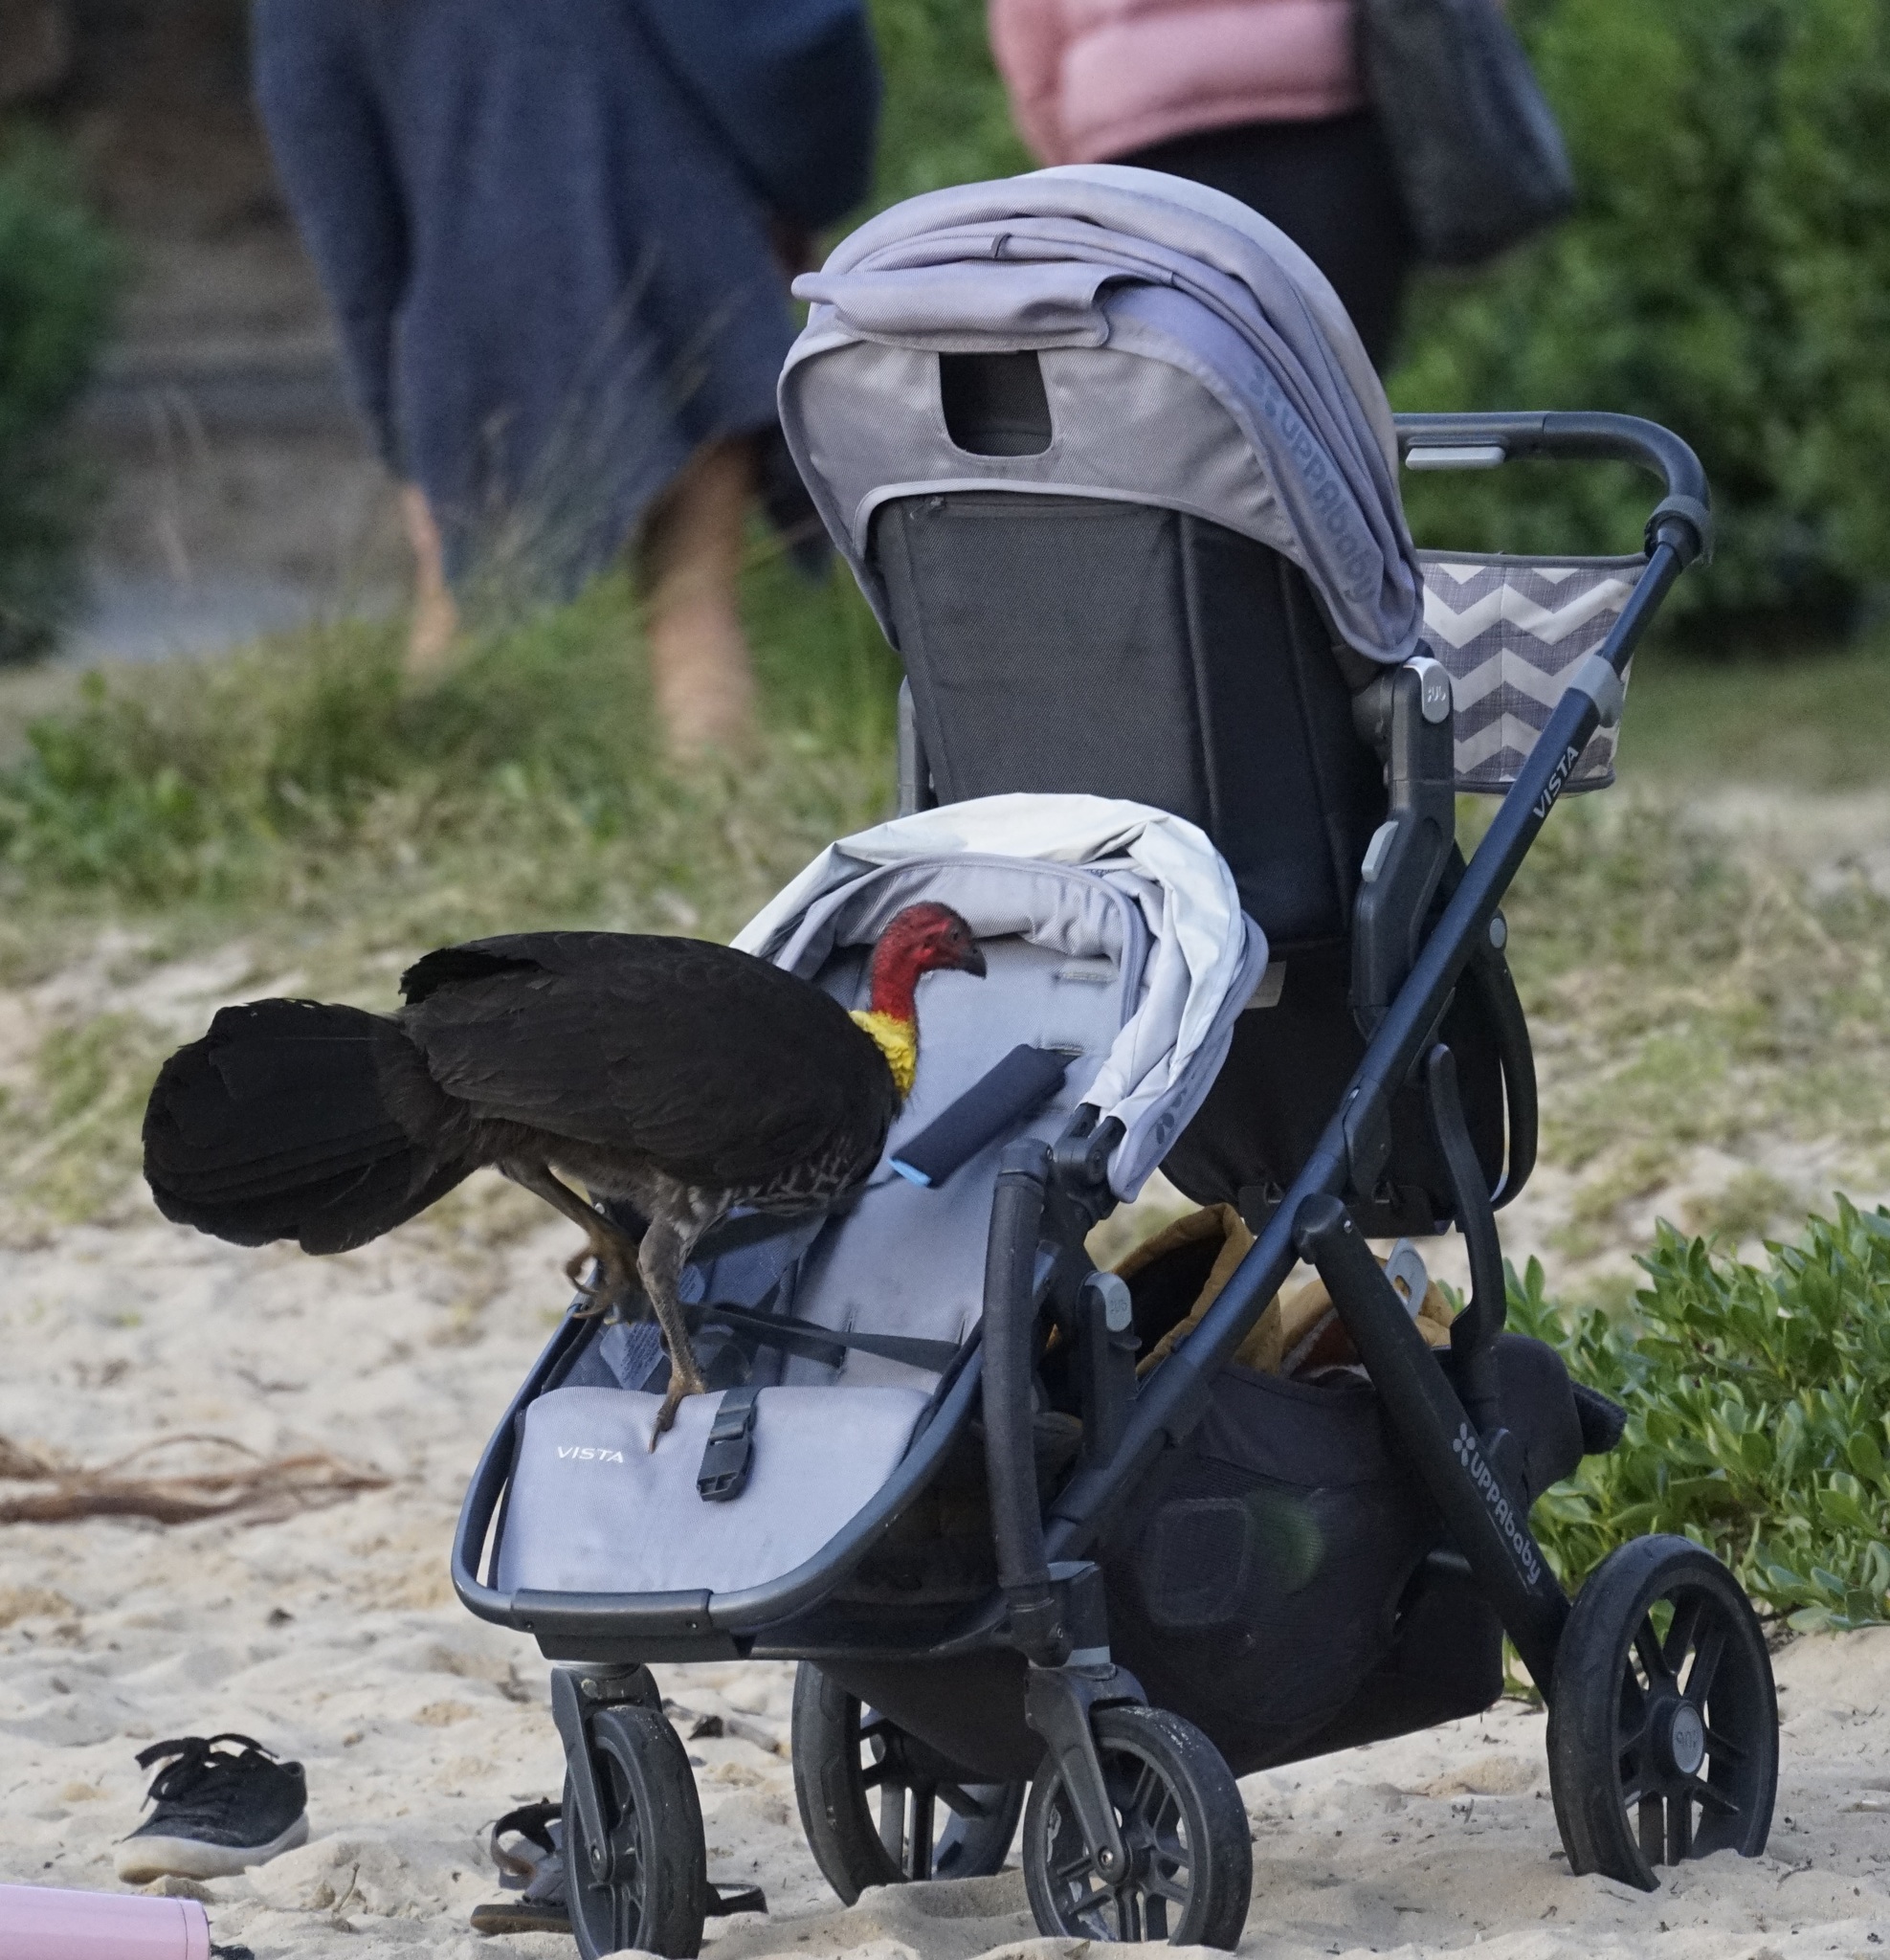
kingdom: Animalia
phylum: Chordata
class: Aves
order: Galliformes
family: Megapodiidae
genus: Alectura
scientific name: Alectura lathami
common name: Australian brushturkey
